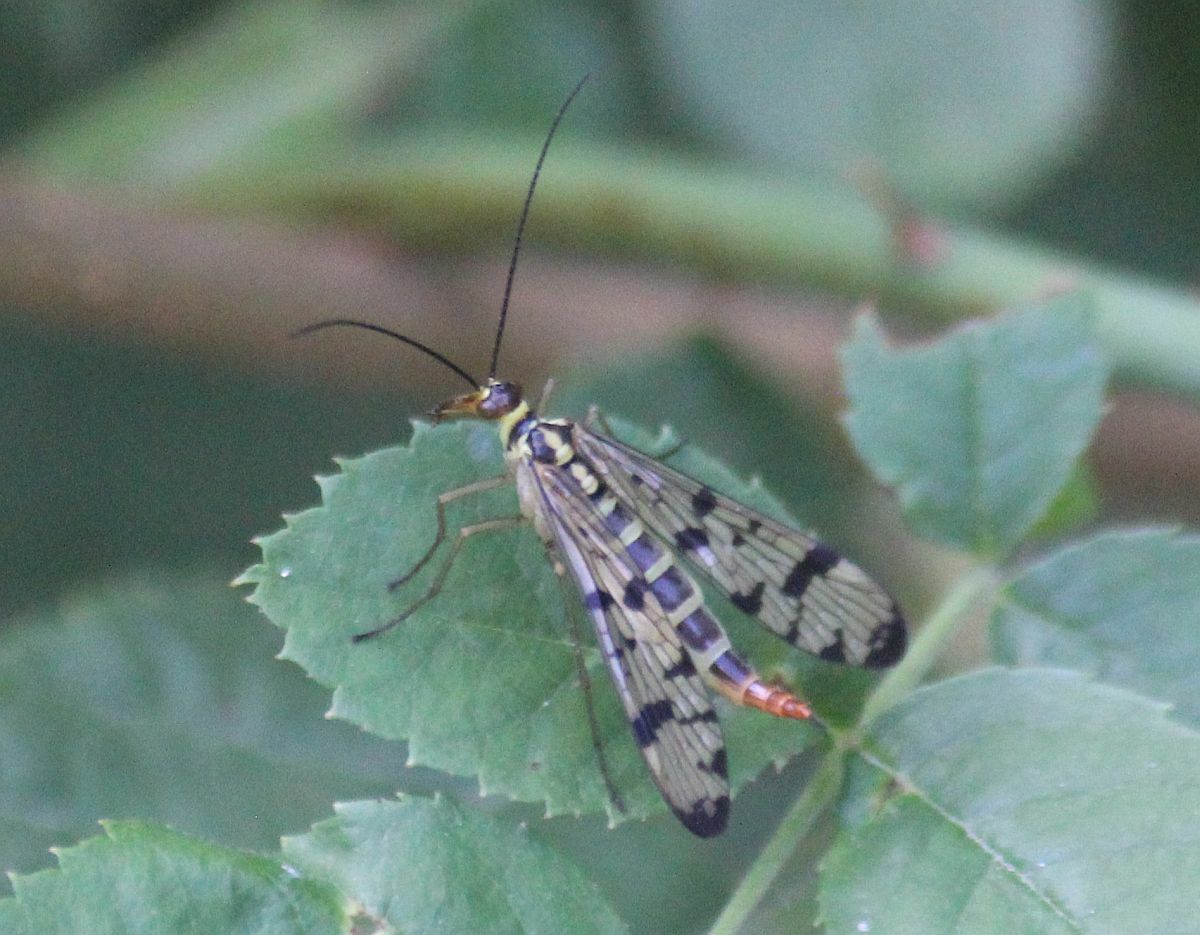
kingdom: Animalia
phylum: Arthropoda
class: Insecta
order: Mecoptera
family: Panorpidae
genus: Panorpa
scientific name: Panorpa
